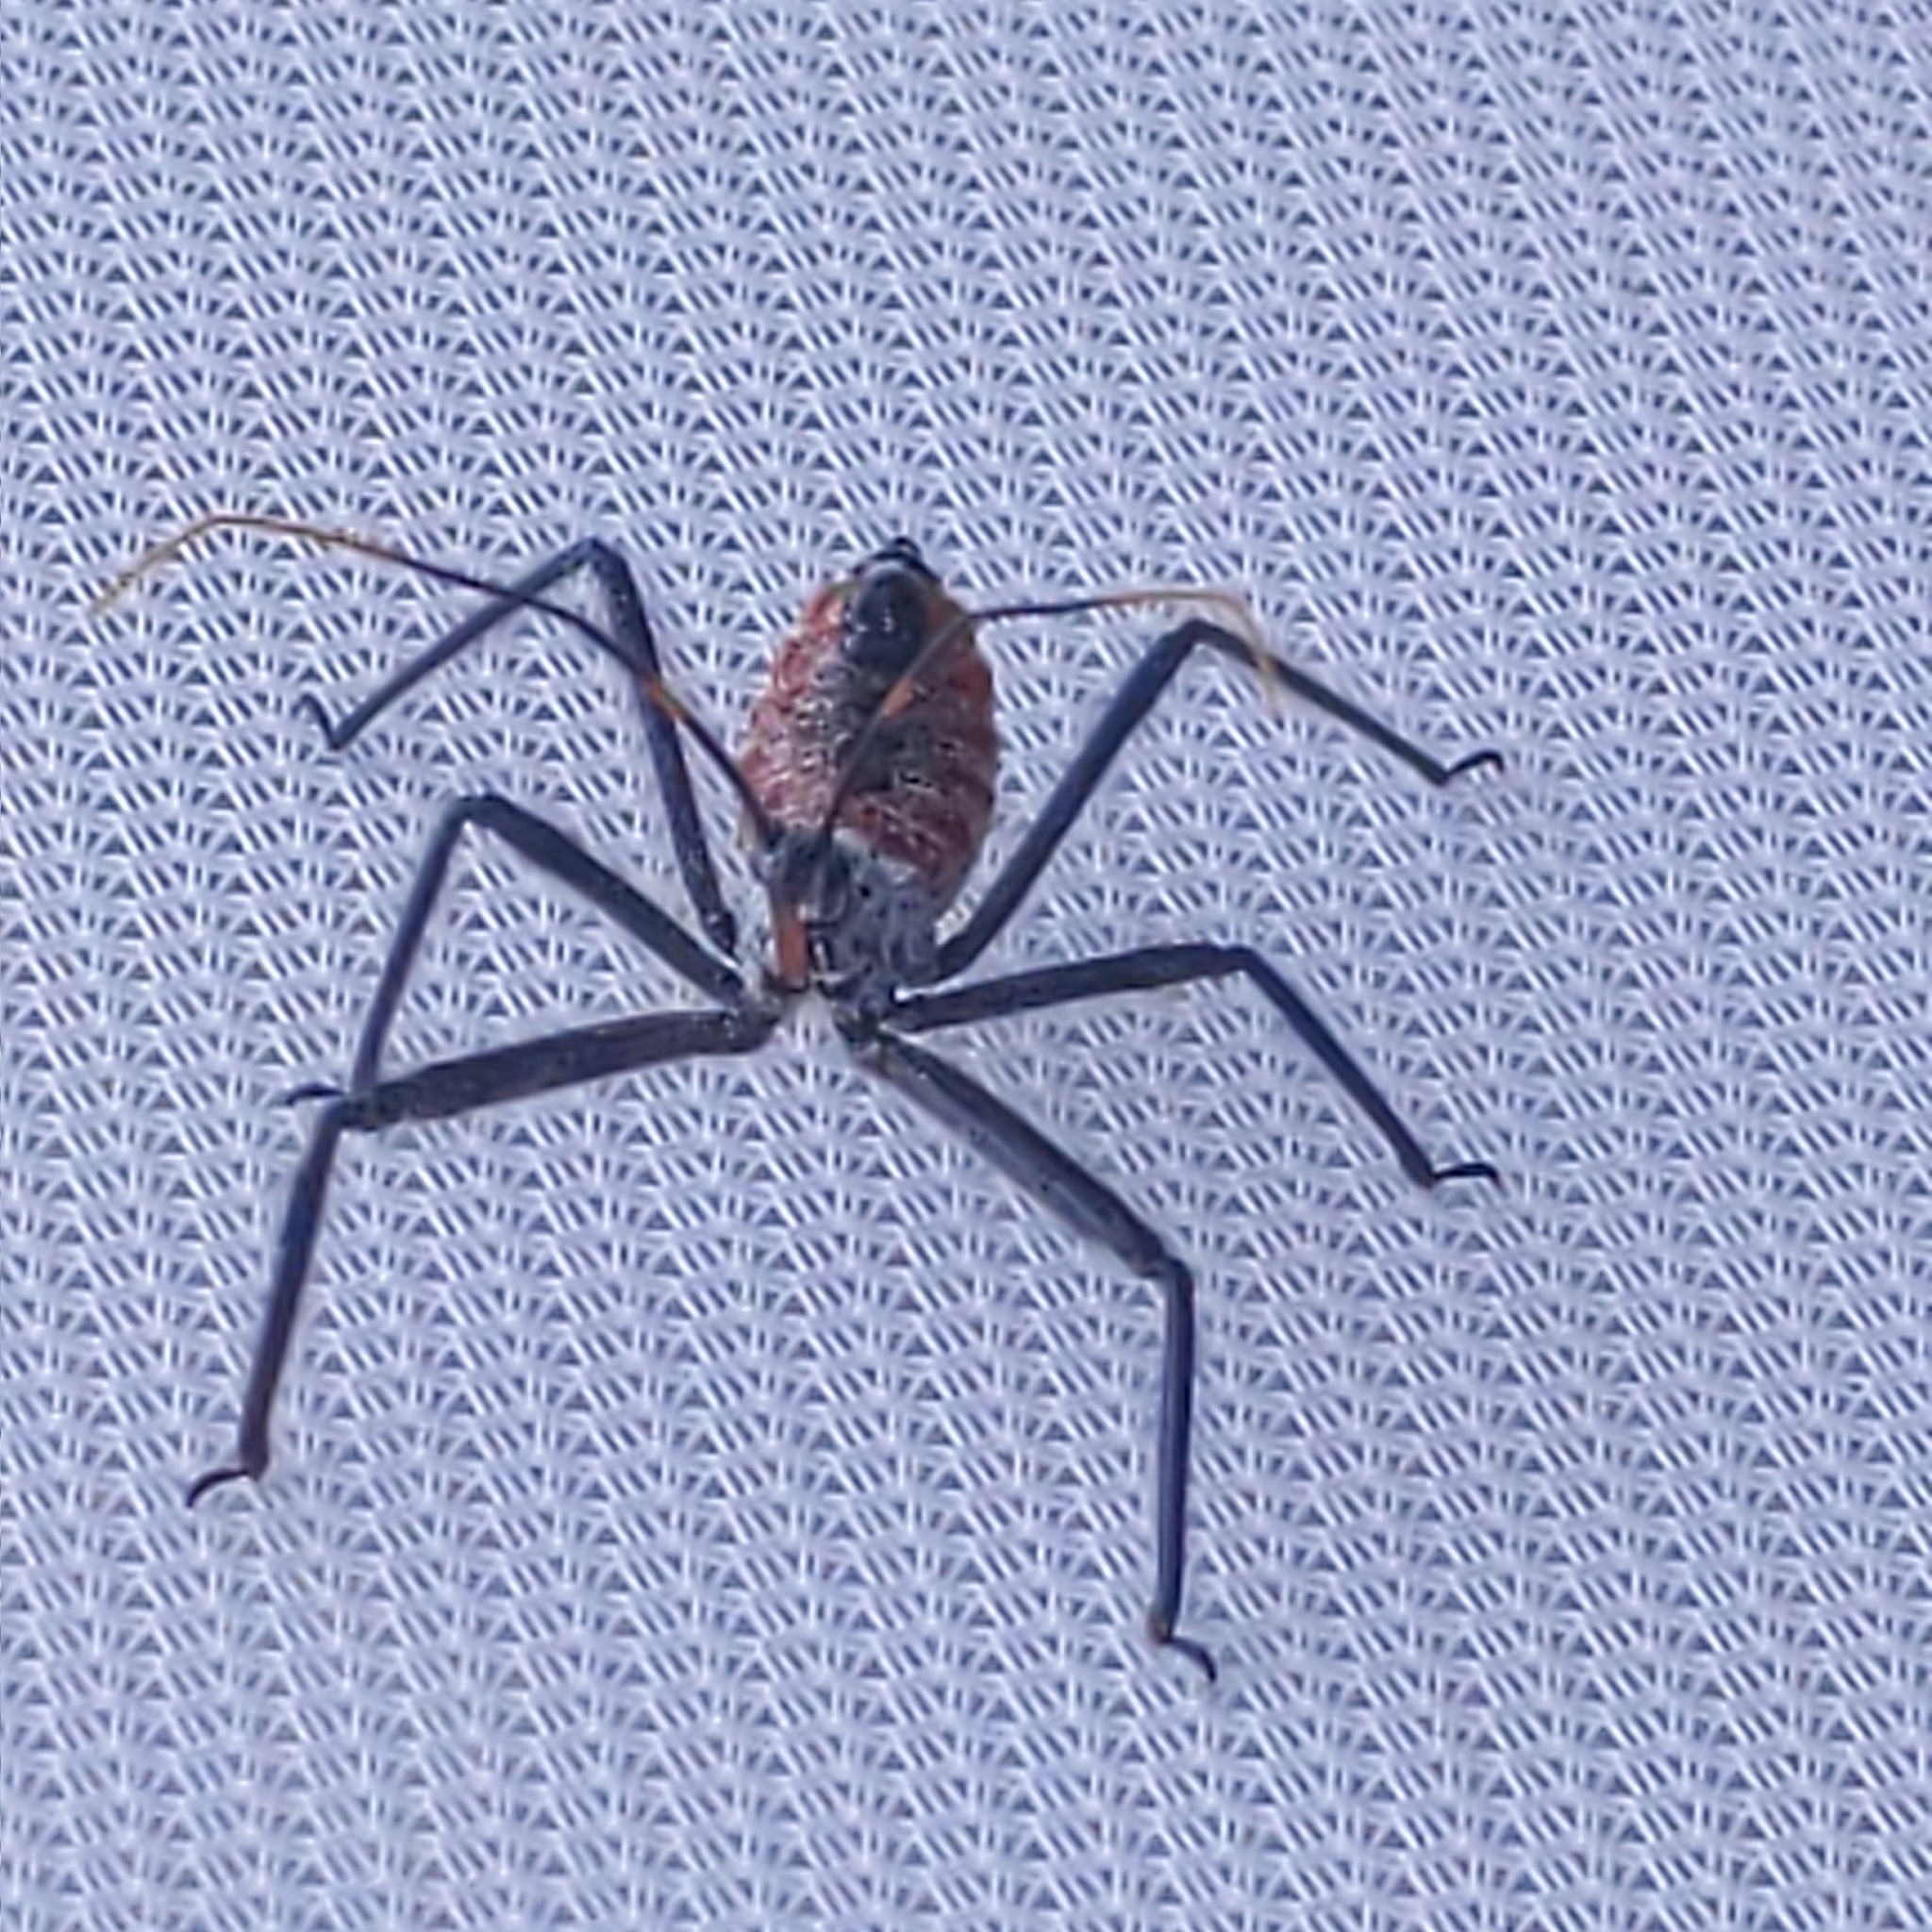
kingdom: Animalia
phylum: Arthropoda
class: Insecta
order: Hemiptera
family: Reduviidae
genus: Arilus
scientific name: Arilus cristatus
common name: North american wheel bug
